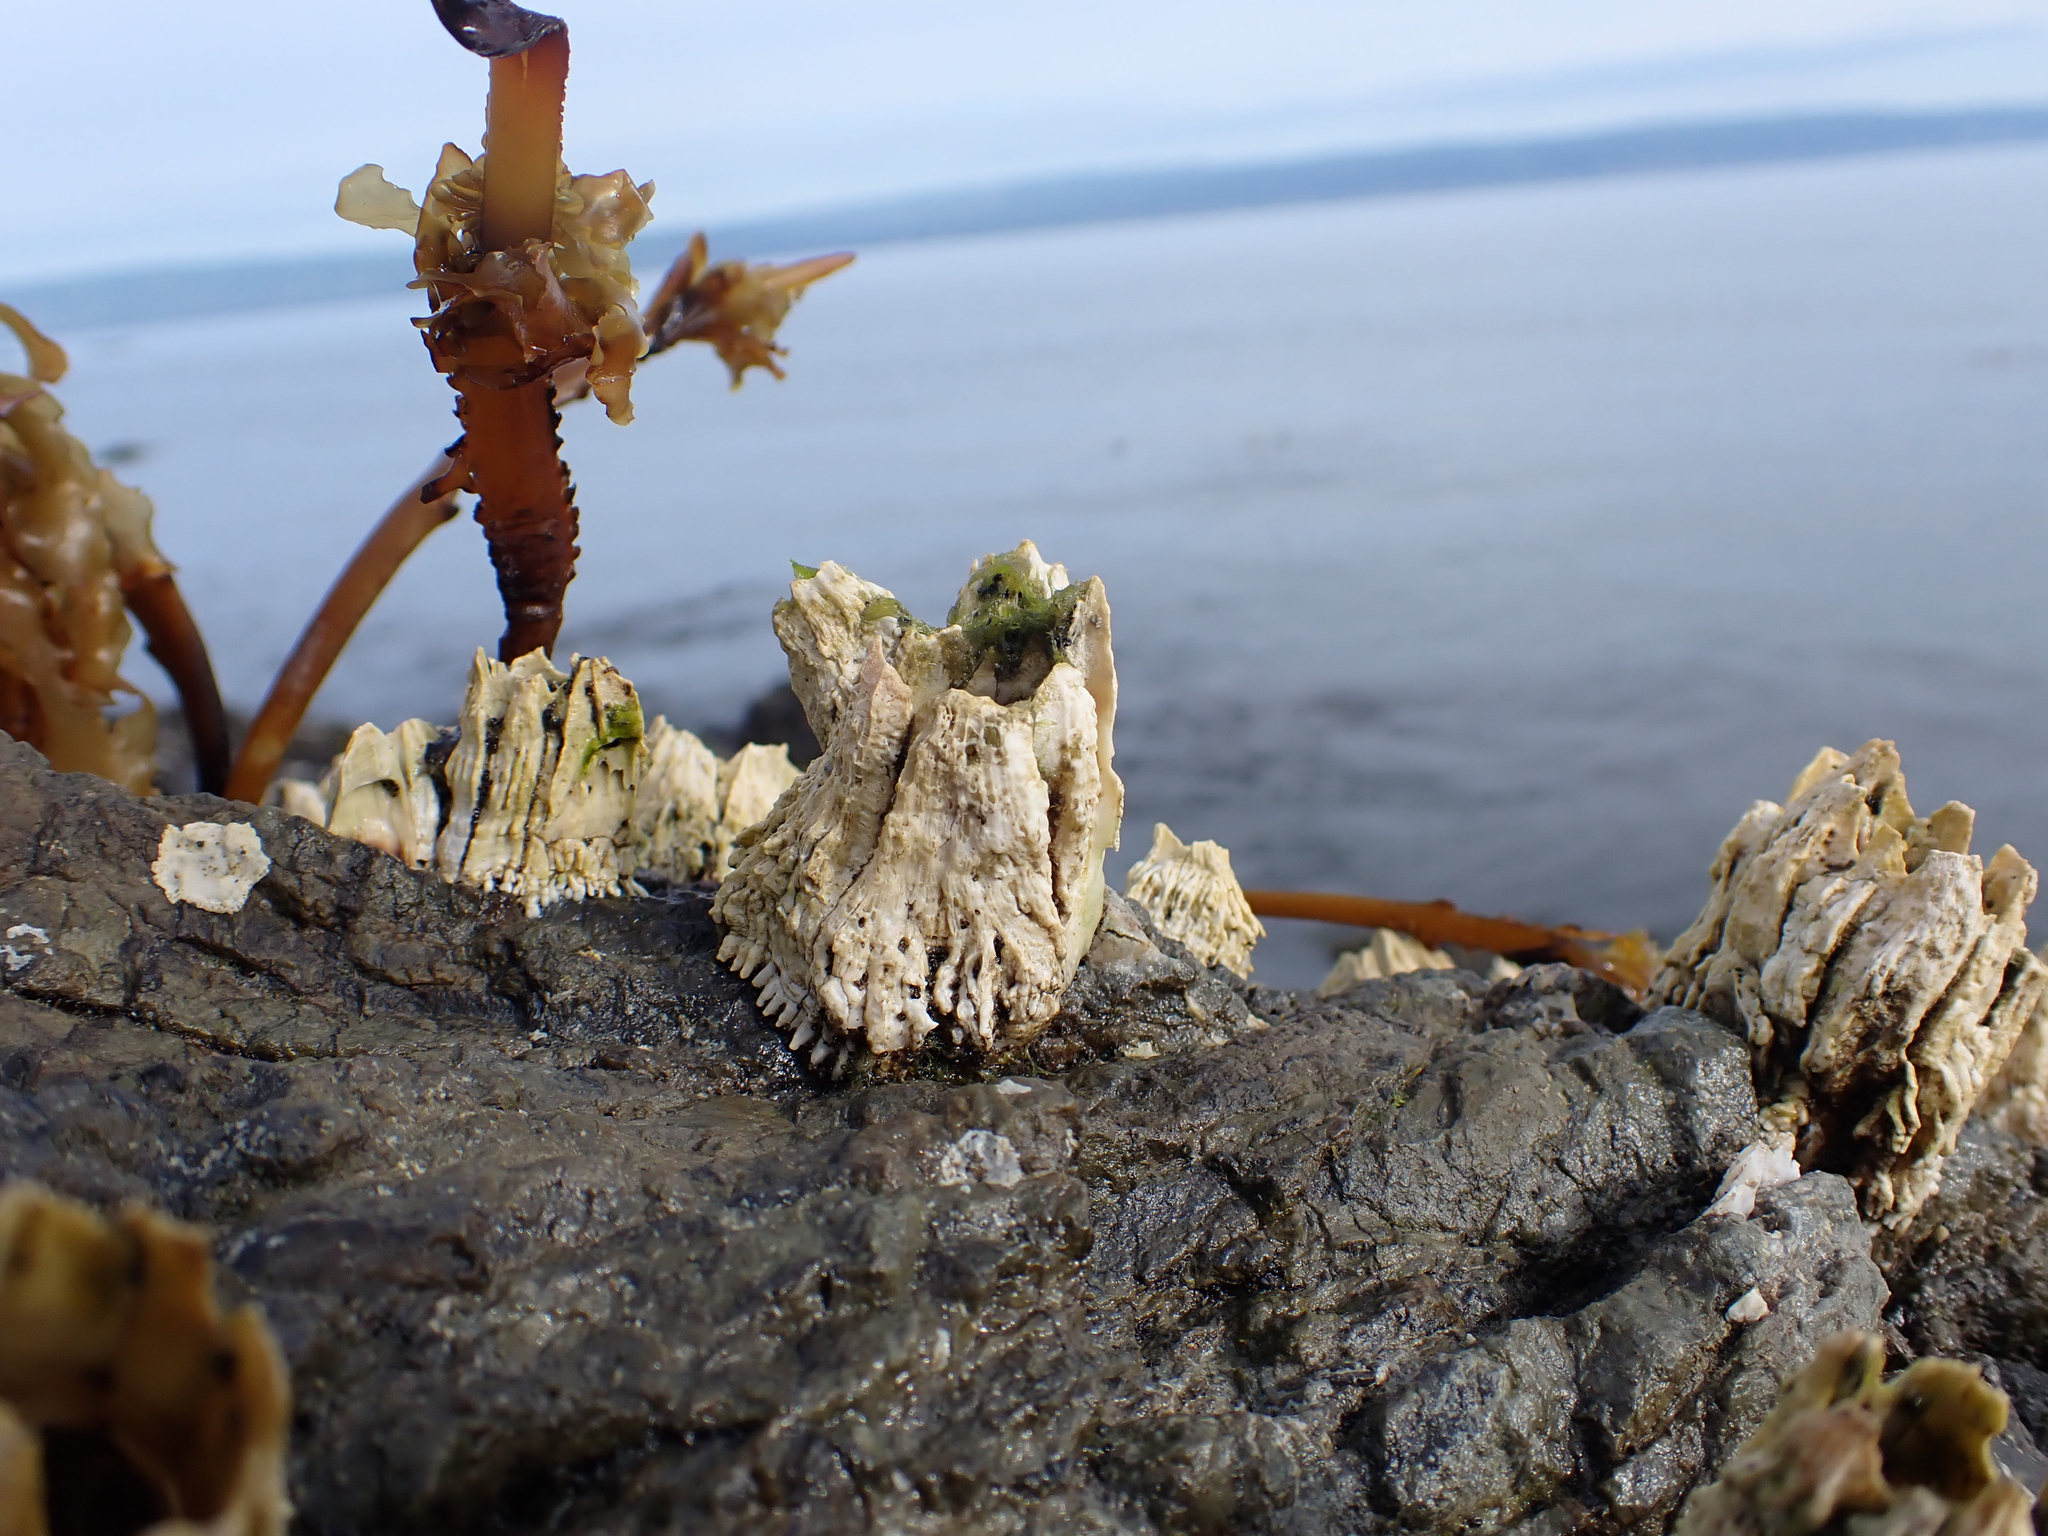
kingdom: Animalia
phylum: Arthropoda
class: Maxillopoda
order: Sessilia
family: Archaeobalanidae
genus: Semibalanus
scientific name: Semibalanus cariosus
